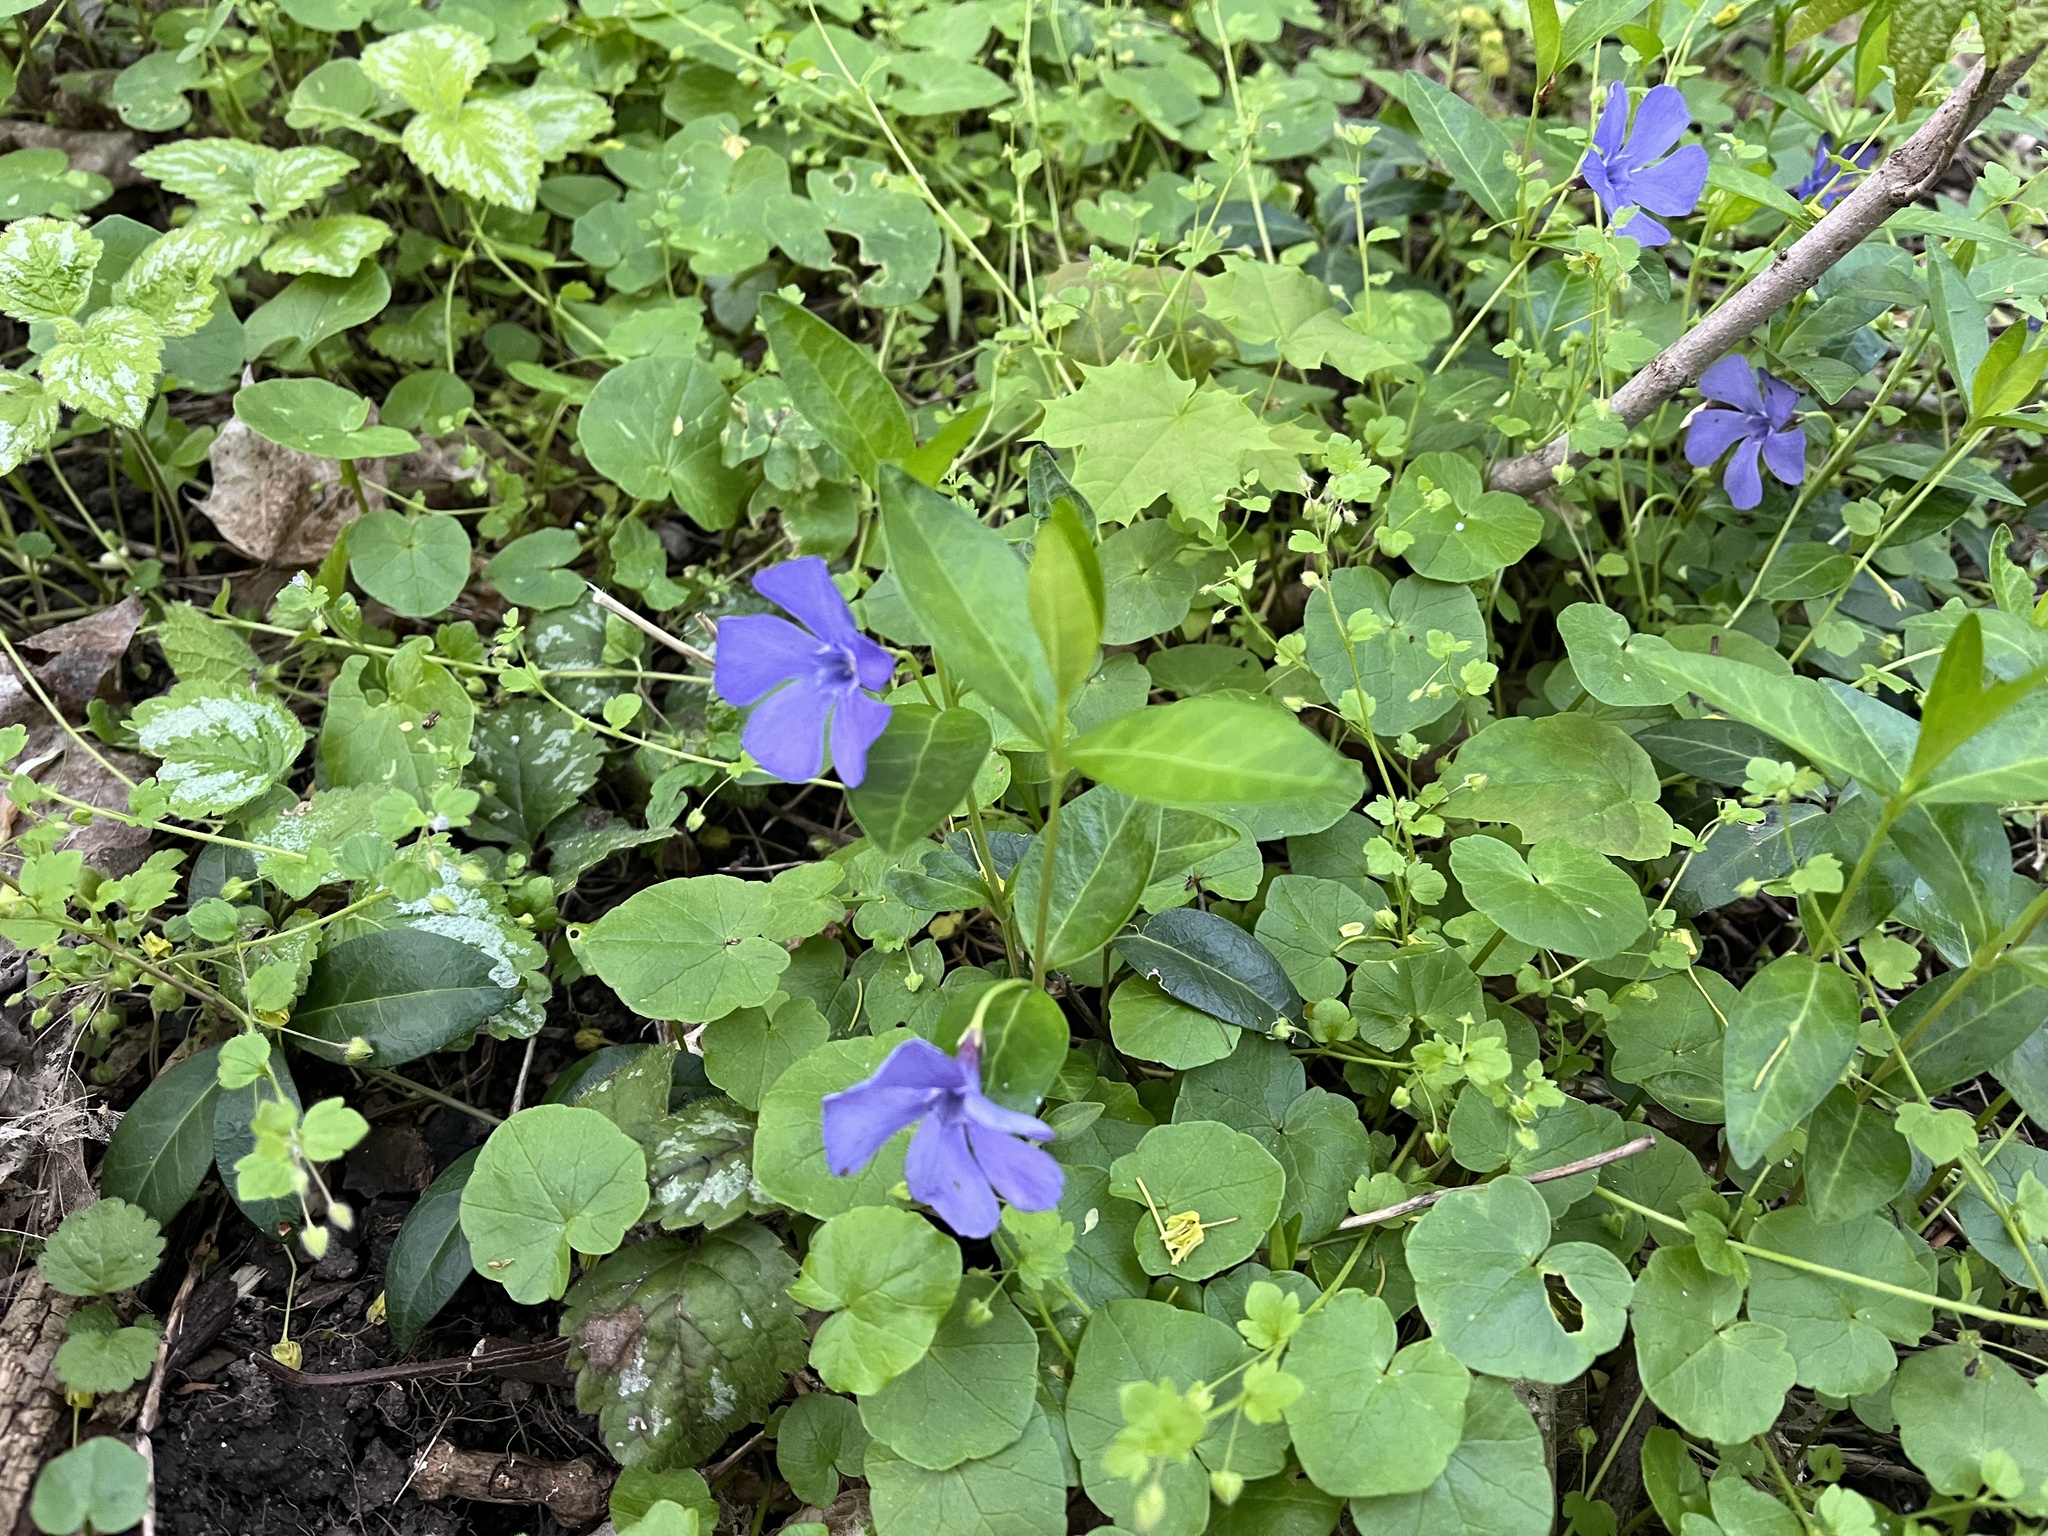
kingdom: Plantae
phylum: Tracheophyta
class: Magnoliopsida
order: Gentianales
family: Apocynaceae
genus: Vinca
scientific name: Vinca minor
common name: Lesser periwinkle
